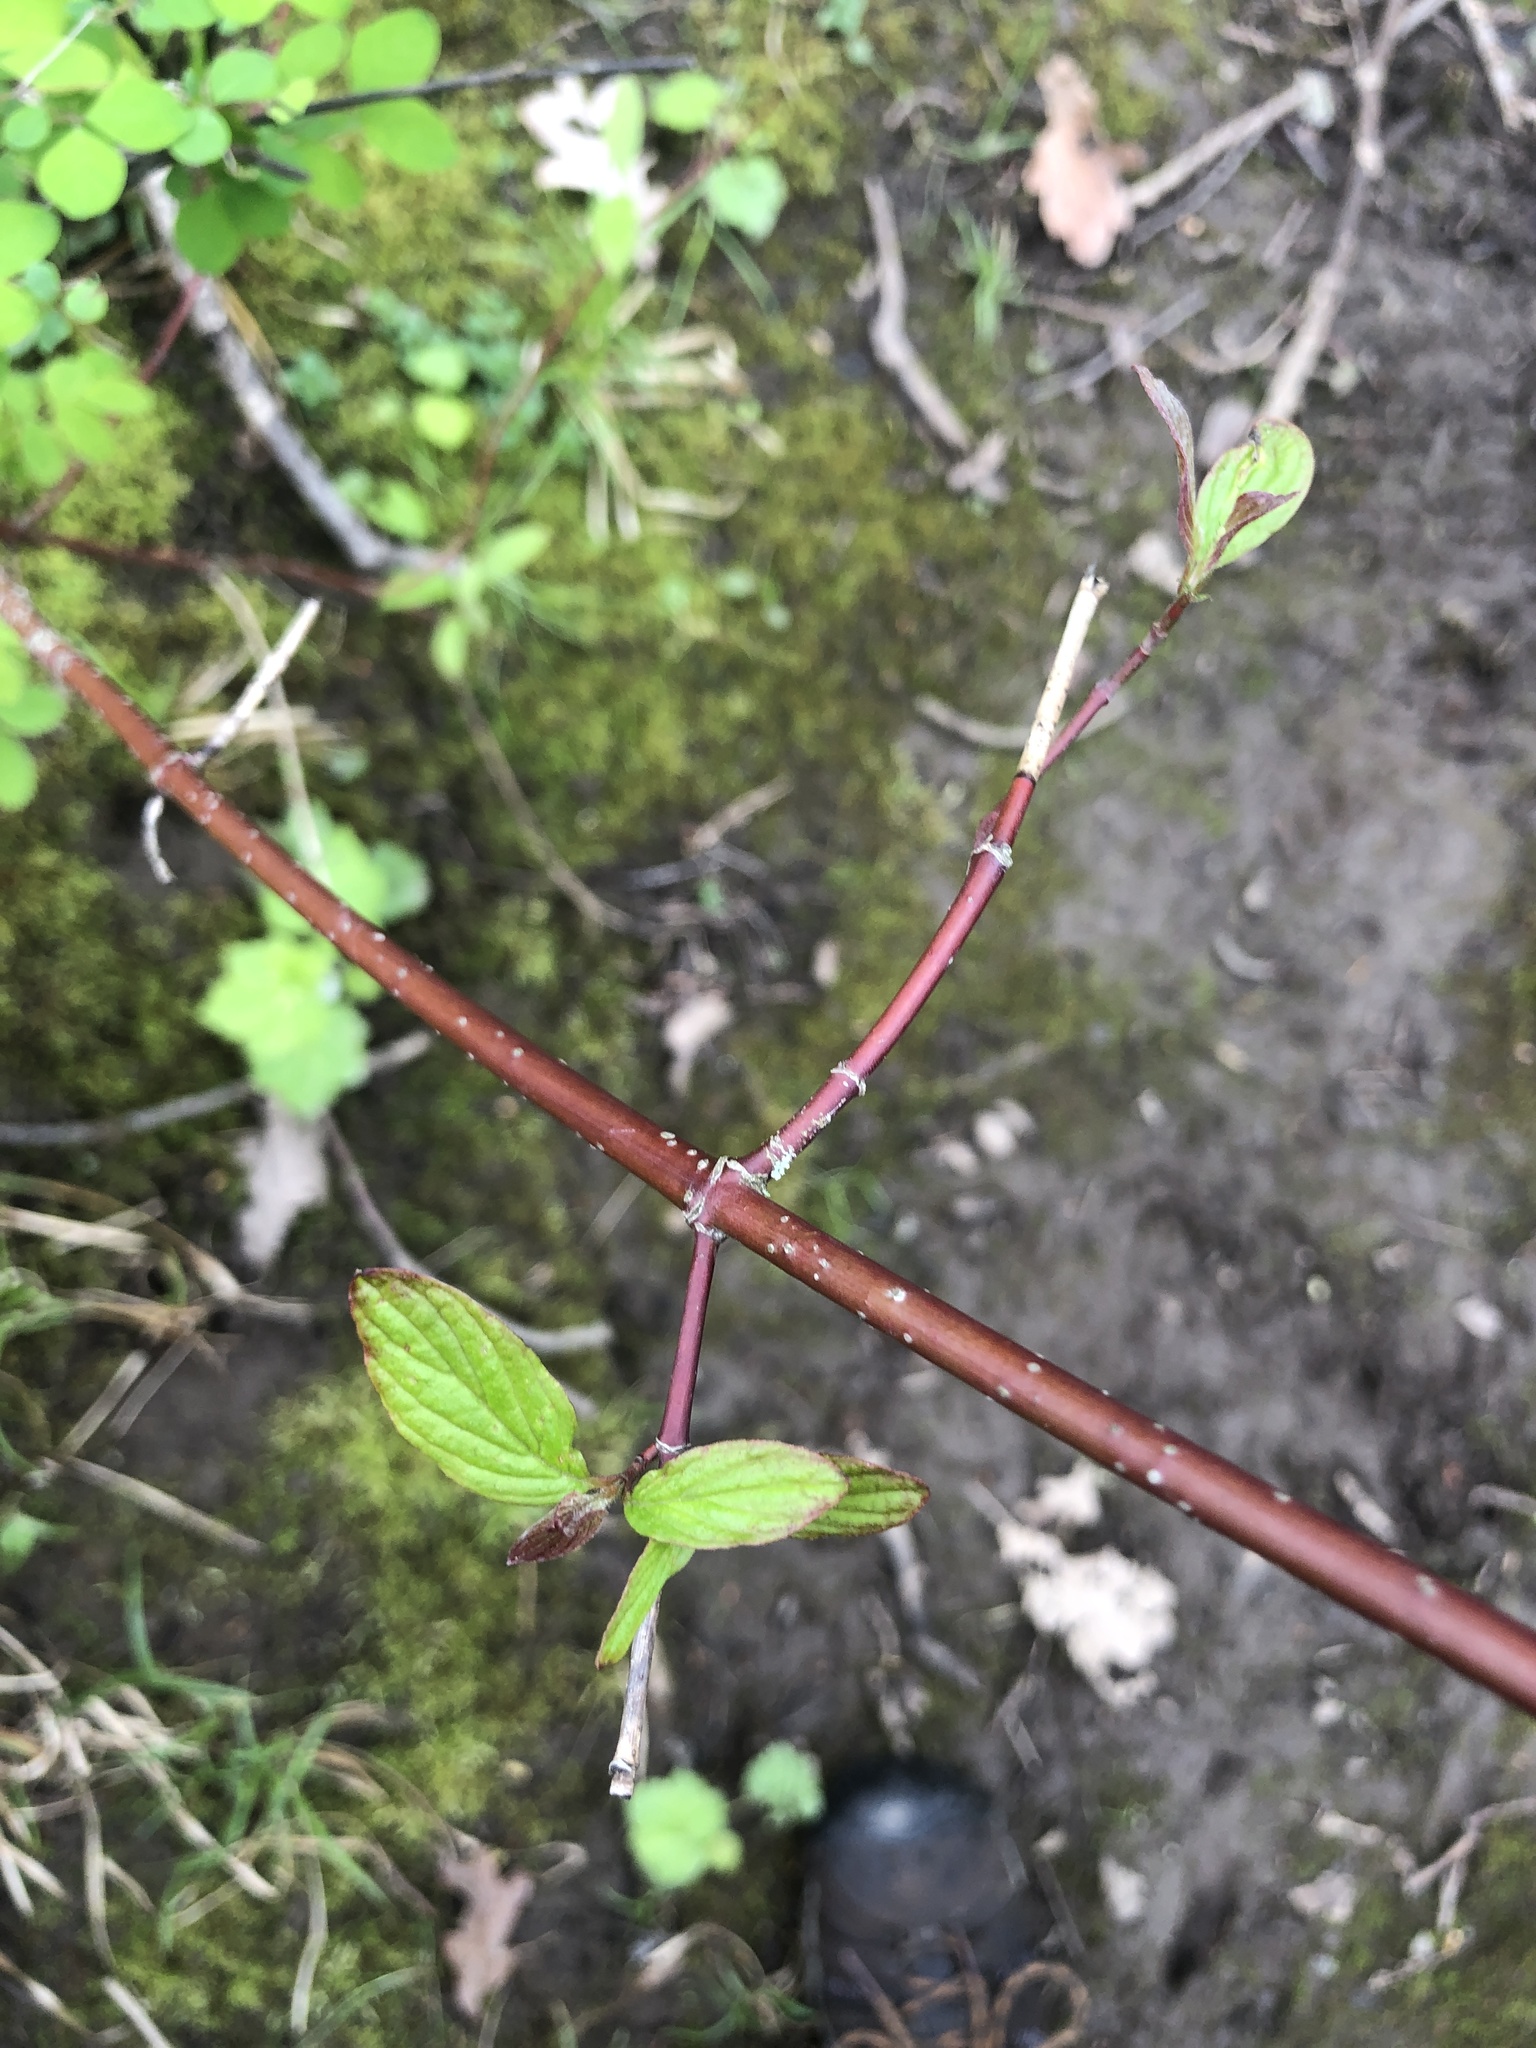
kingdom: Plantae
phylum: Tracheophyta
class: Magnoliopsida
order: Cornales
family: Cornaceae
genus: Cornus
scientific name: Cornus sericea
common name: Red-osier dogwood
